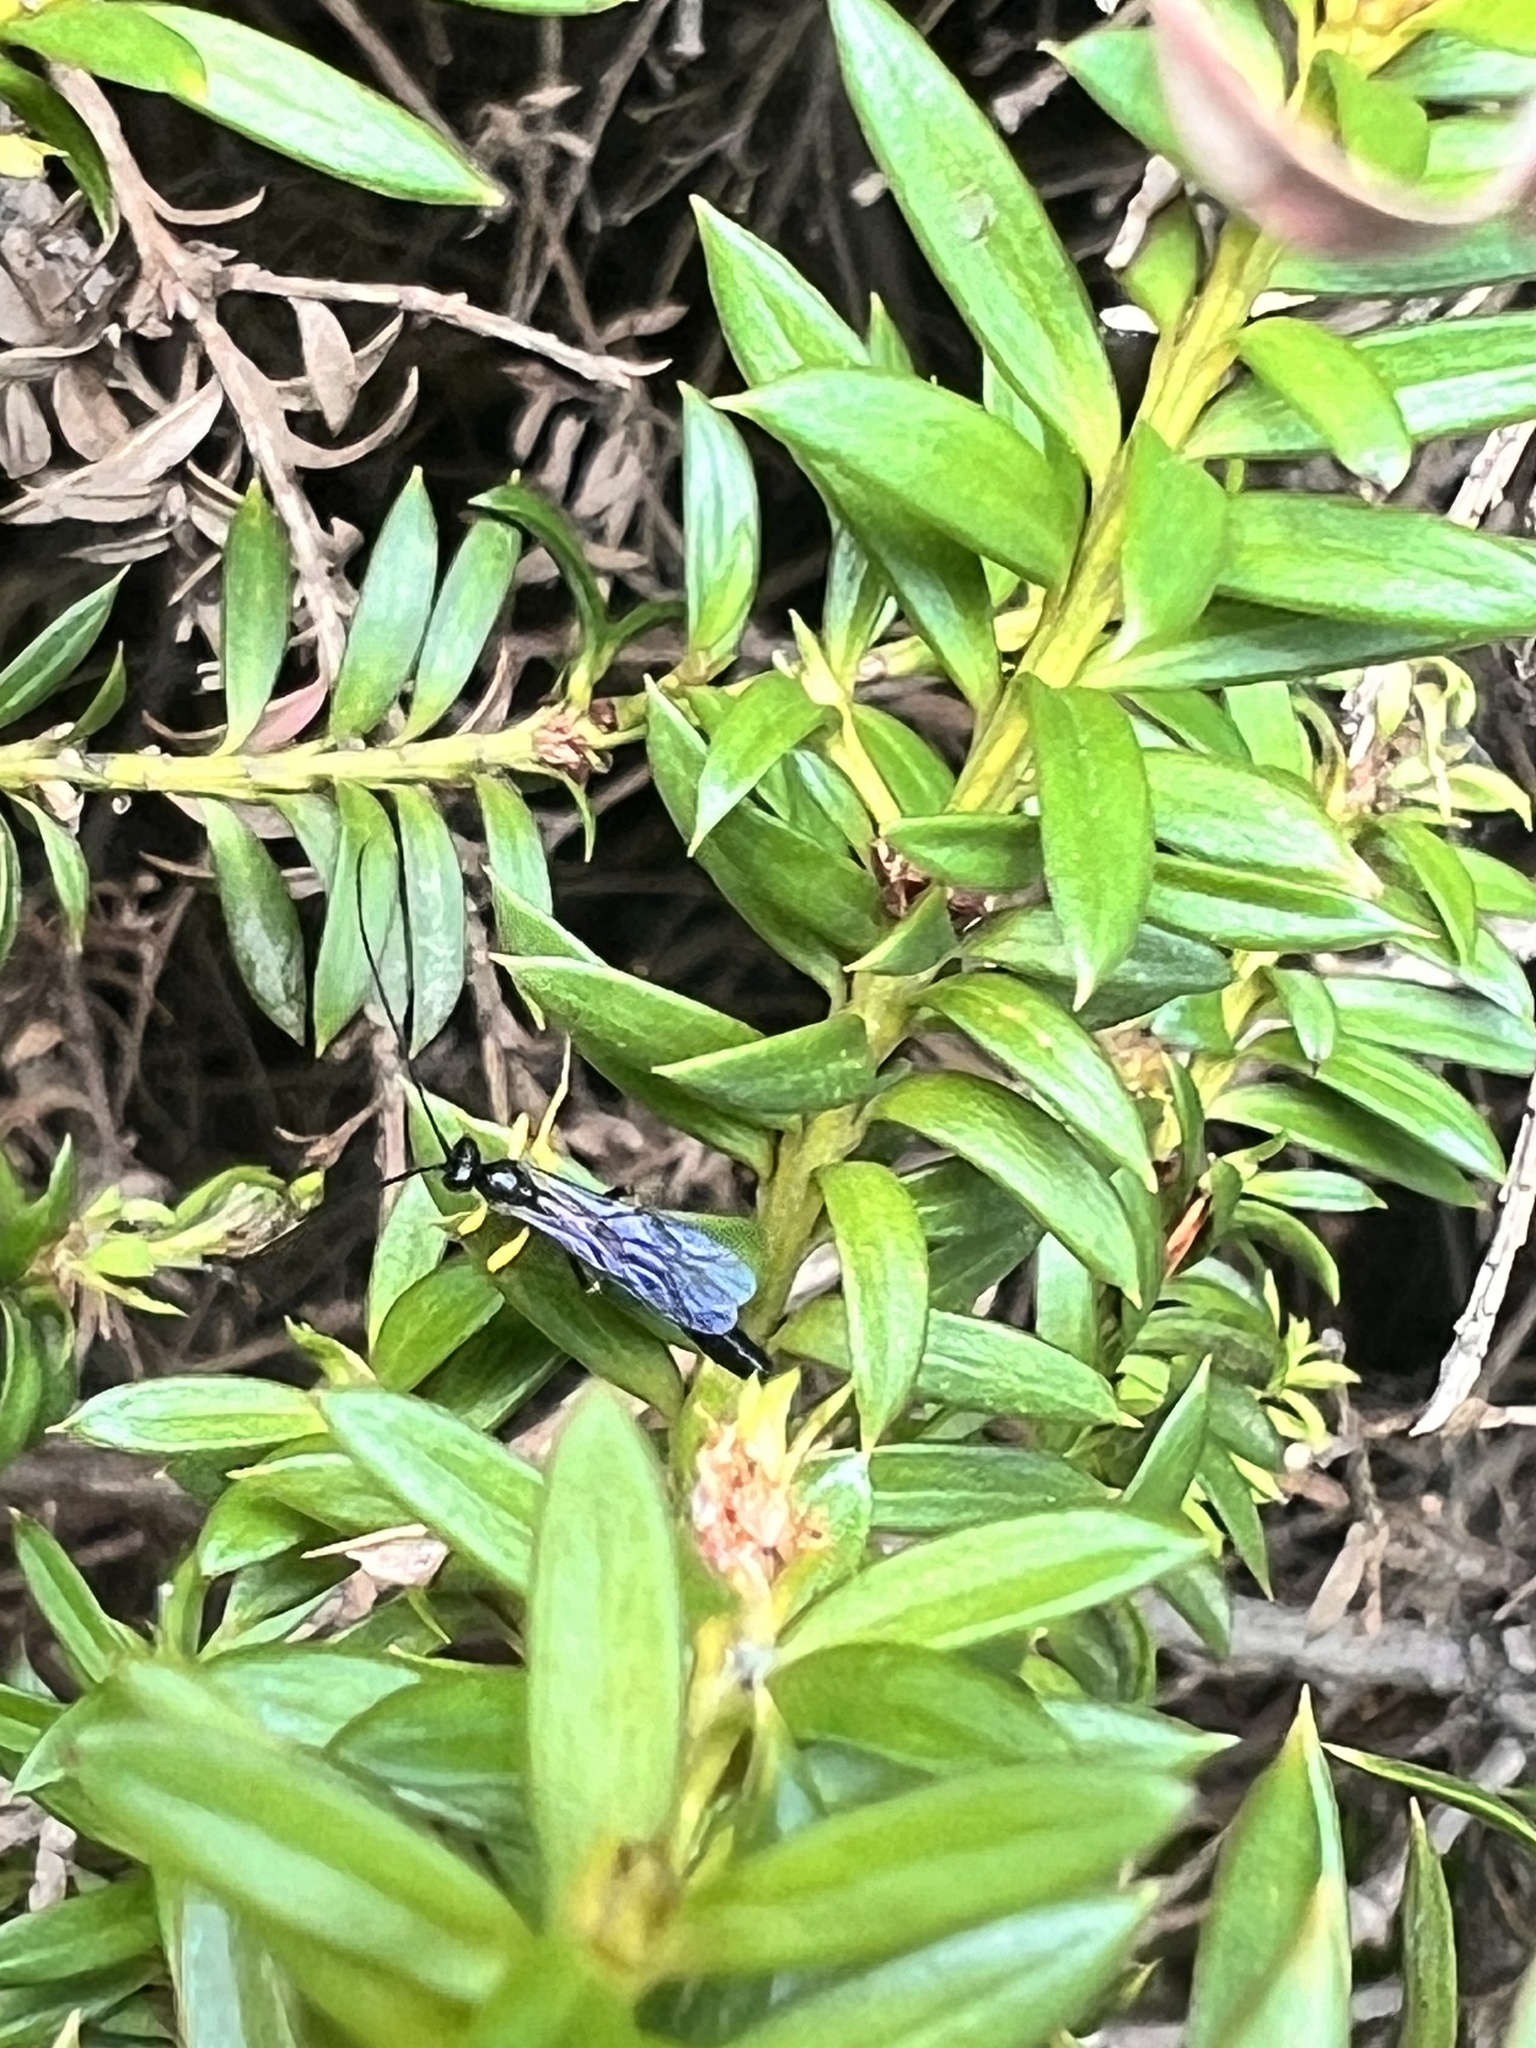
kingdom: Animalia
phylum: Arthropoda
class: Insecta
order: Hymenoptera
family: Ichneumonidae
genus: Dusona
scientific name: Dusona stramineipes
